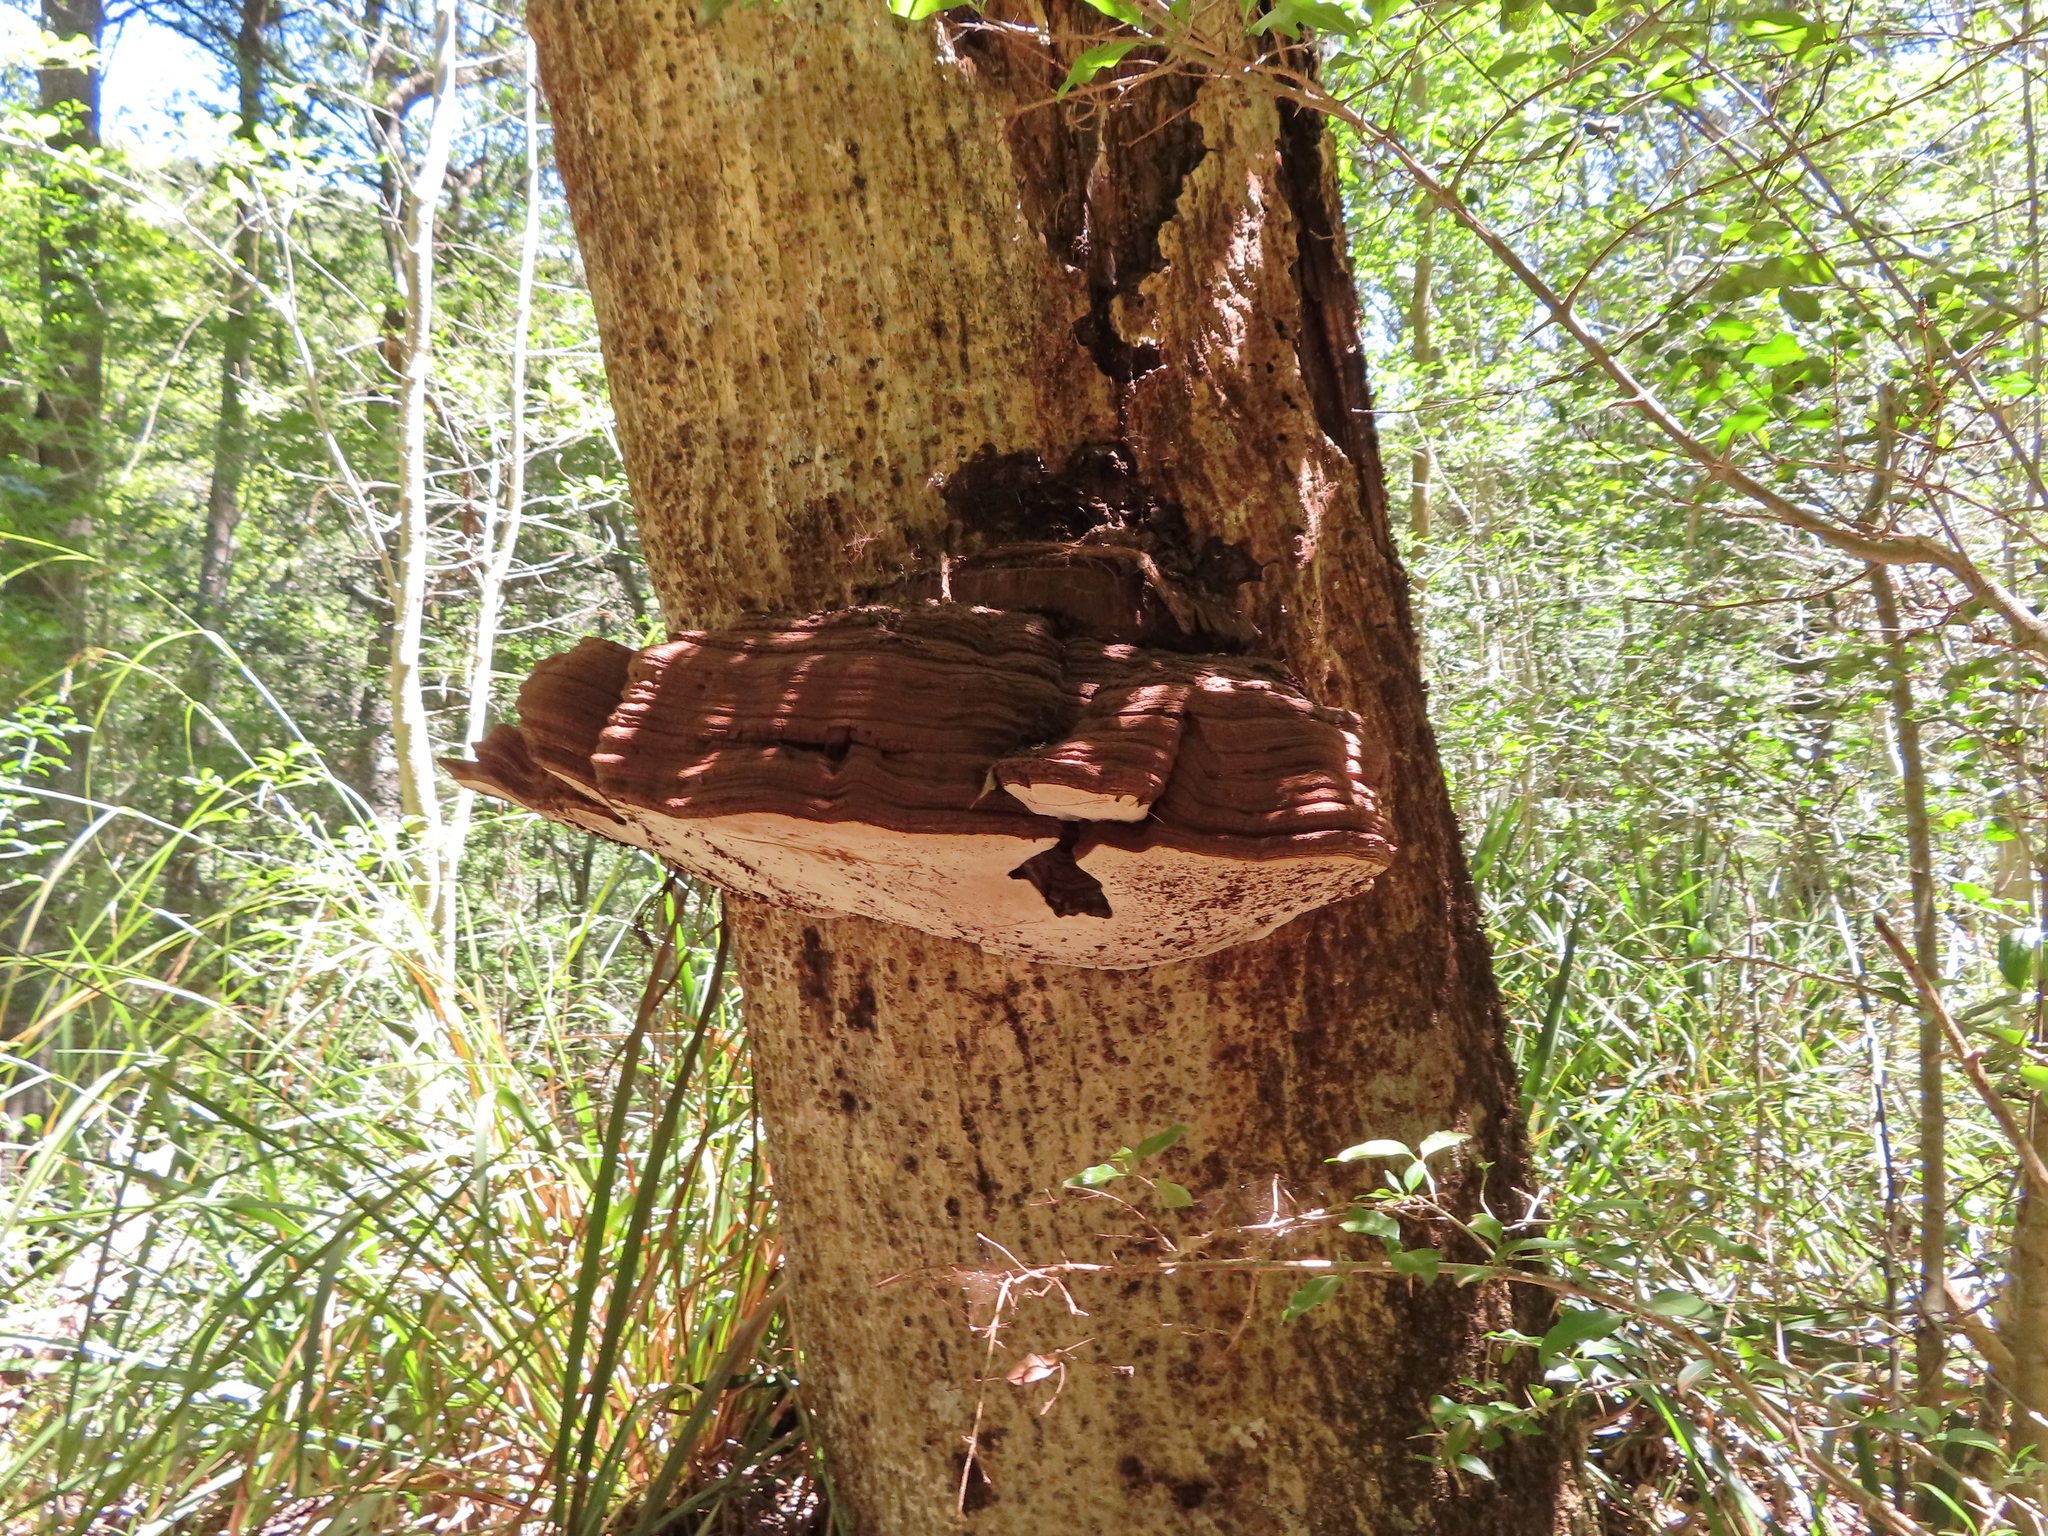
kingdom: Fungi
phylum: Basidiomycota
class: Agaricomycetes
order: Polyporales
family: Polyporaceae
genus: Ganoderma
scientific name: Ganoderma applanatum
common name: Artist's bracket
